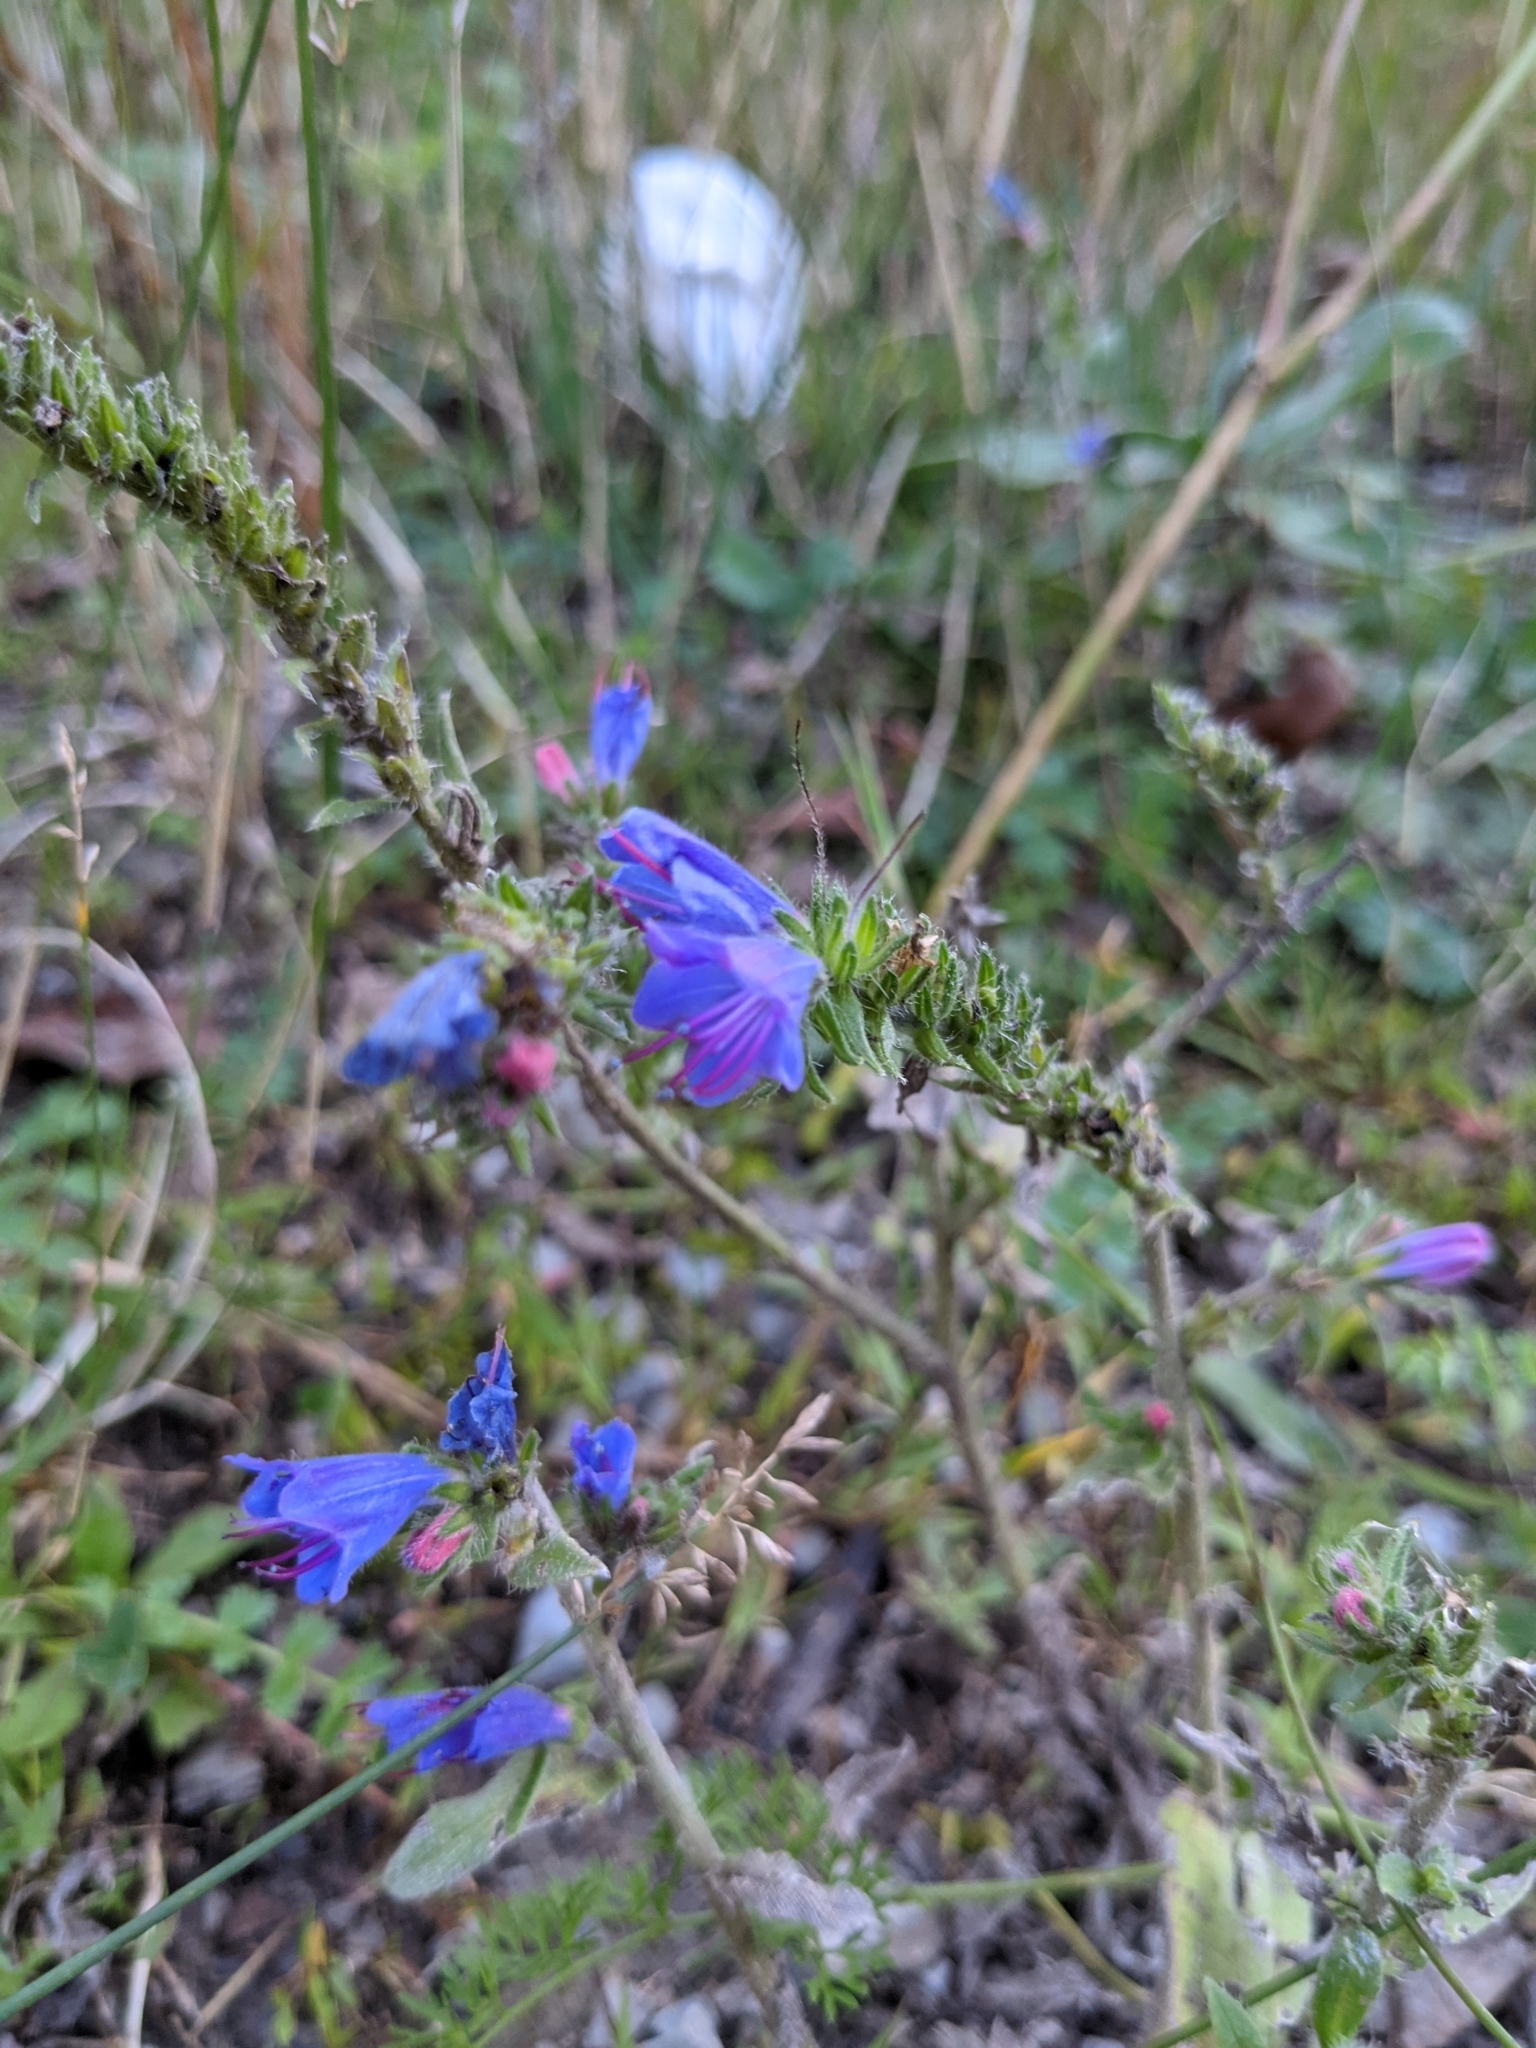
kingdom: Plantae
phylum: Tracheophyta
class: Magnoliopsida
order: Boraginales
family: Boraginaceae
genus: Echium
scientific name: Echium vulgare
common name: Common viper's bugloss
